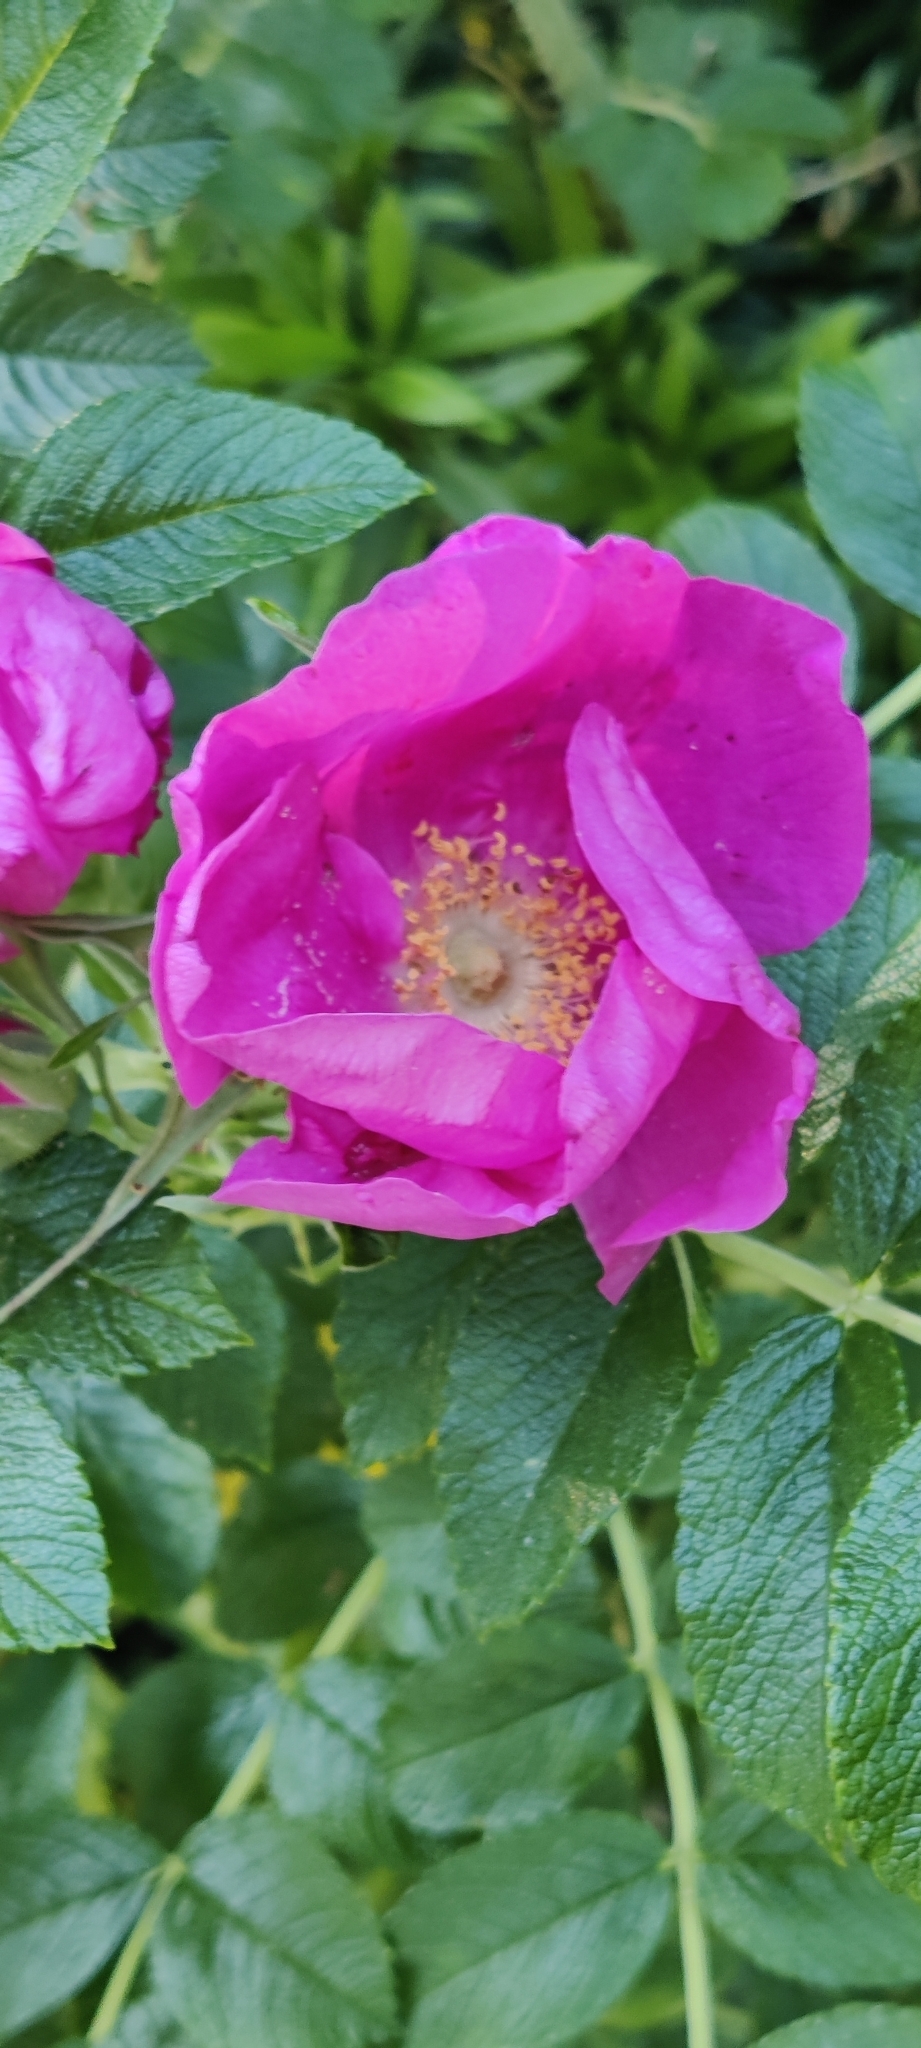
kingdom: Plantae
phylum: Tracheophyta
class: Magnoliopsida
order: Rosales
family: Rosaceae
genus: Rosa
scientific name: Rosa rugosa
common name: Japanese rose
